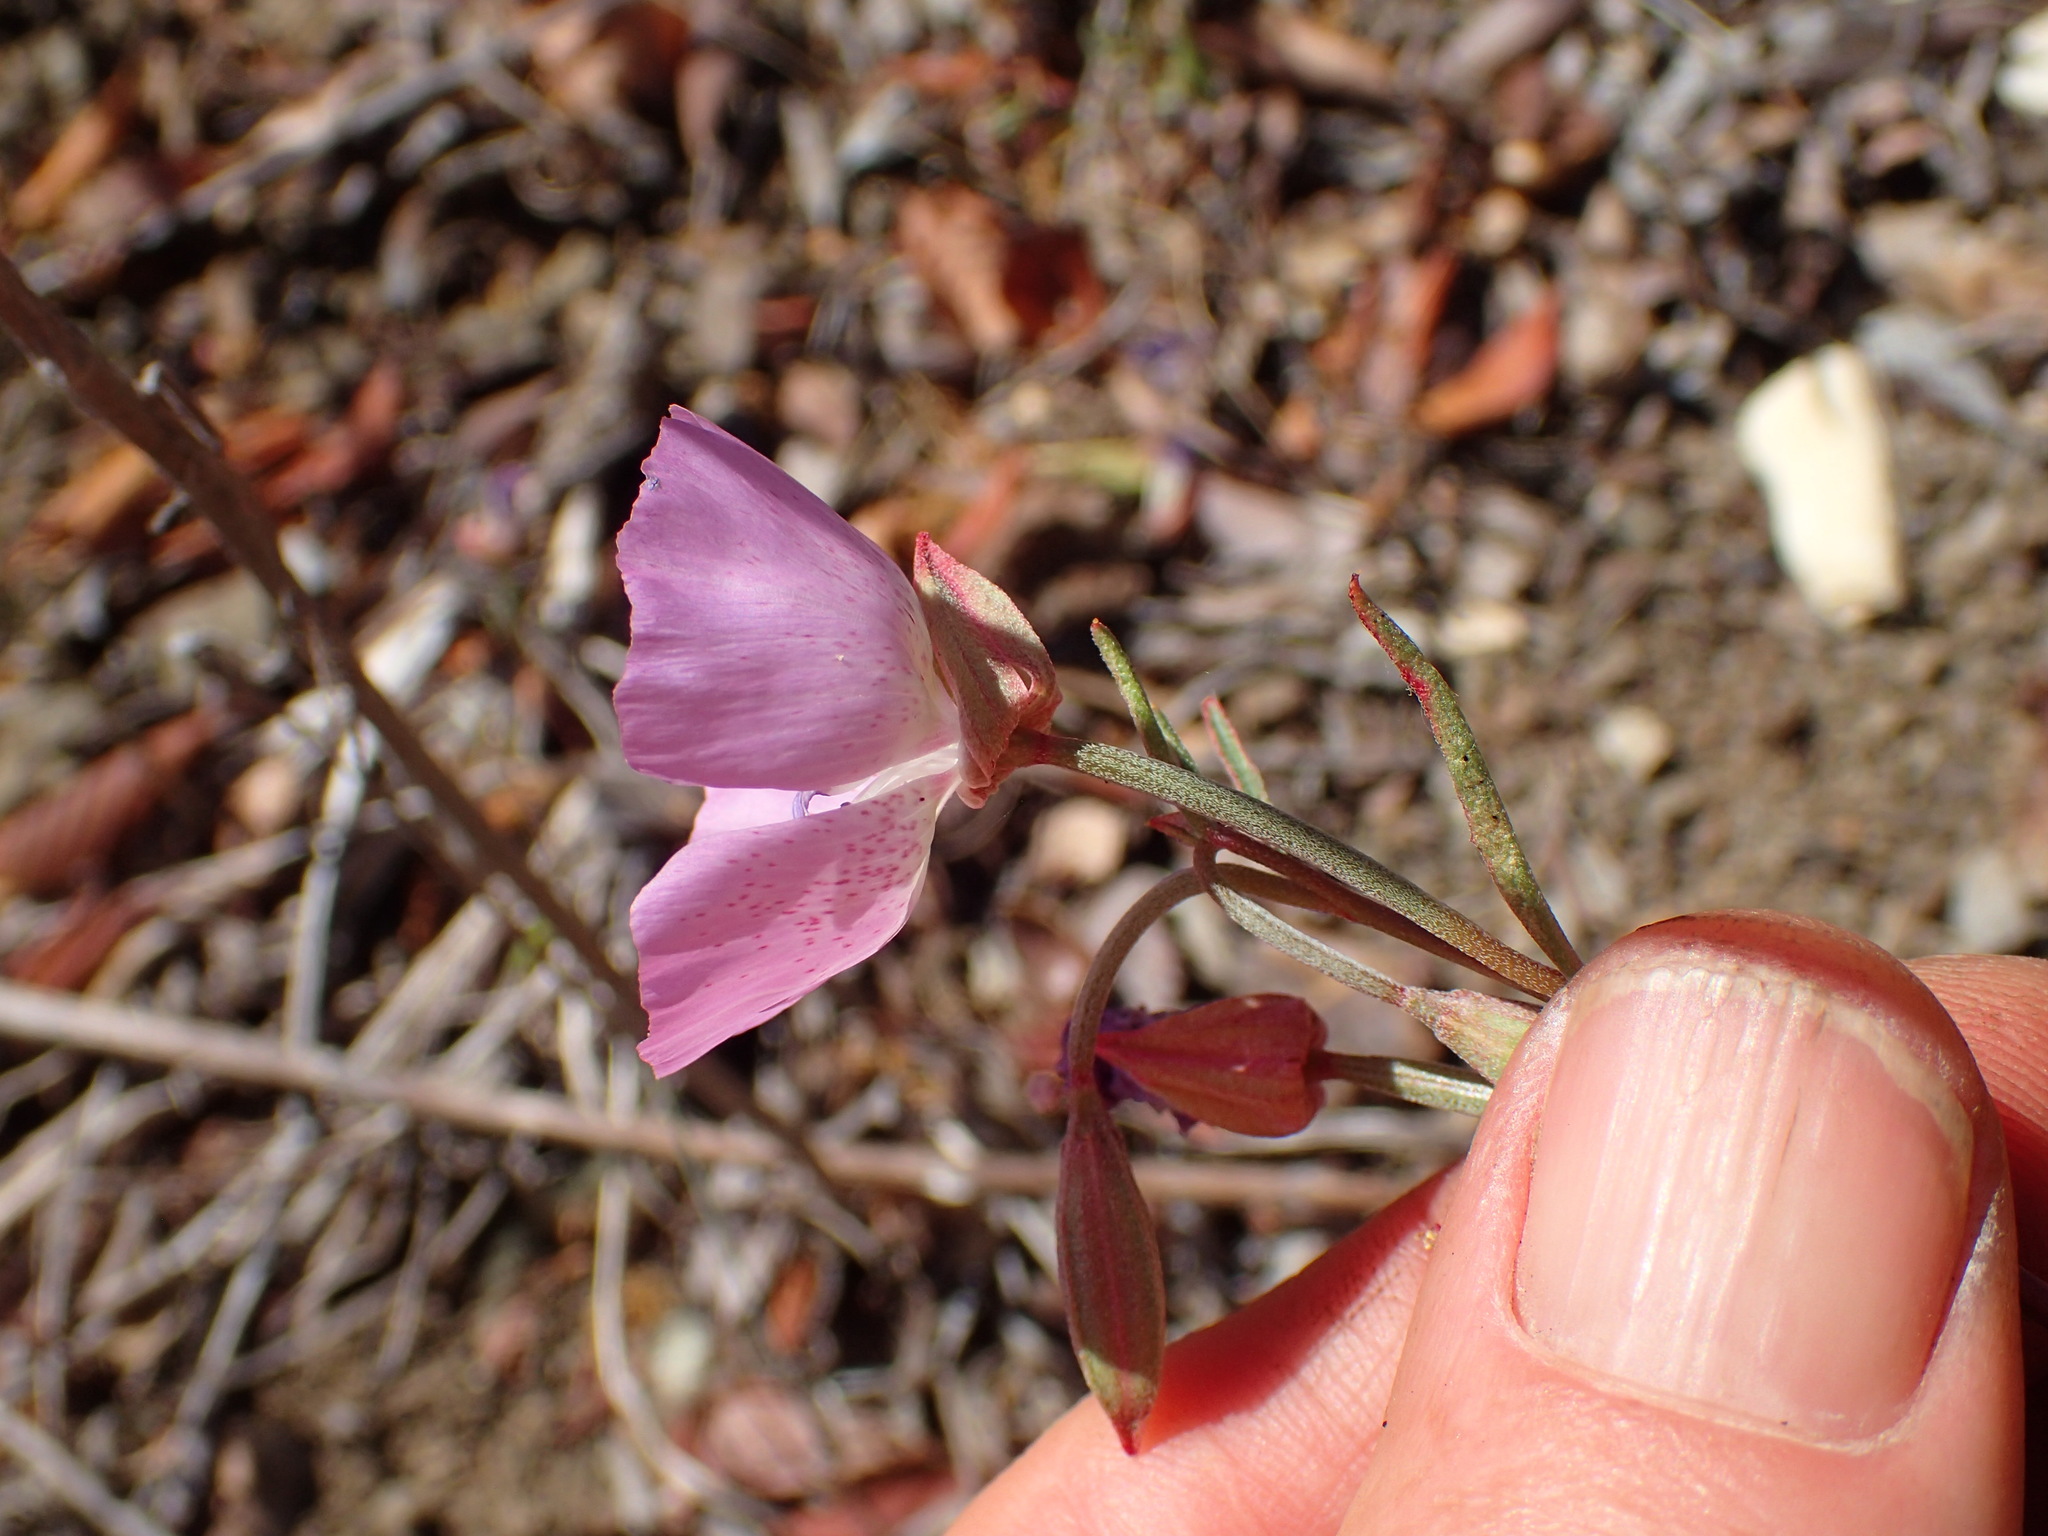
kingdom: Plantae
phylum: Tracheophyta
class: Magnoliopsida
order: Myrtales
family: Onagraceae
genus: Clarkia
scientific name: Clarkia bottae
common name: Punch-bowl godetia
